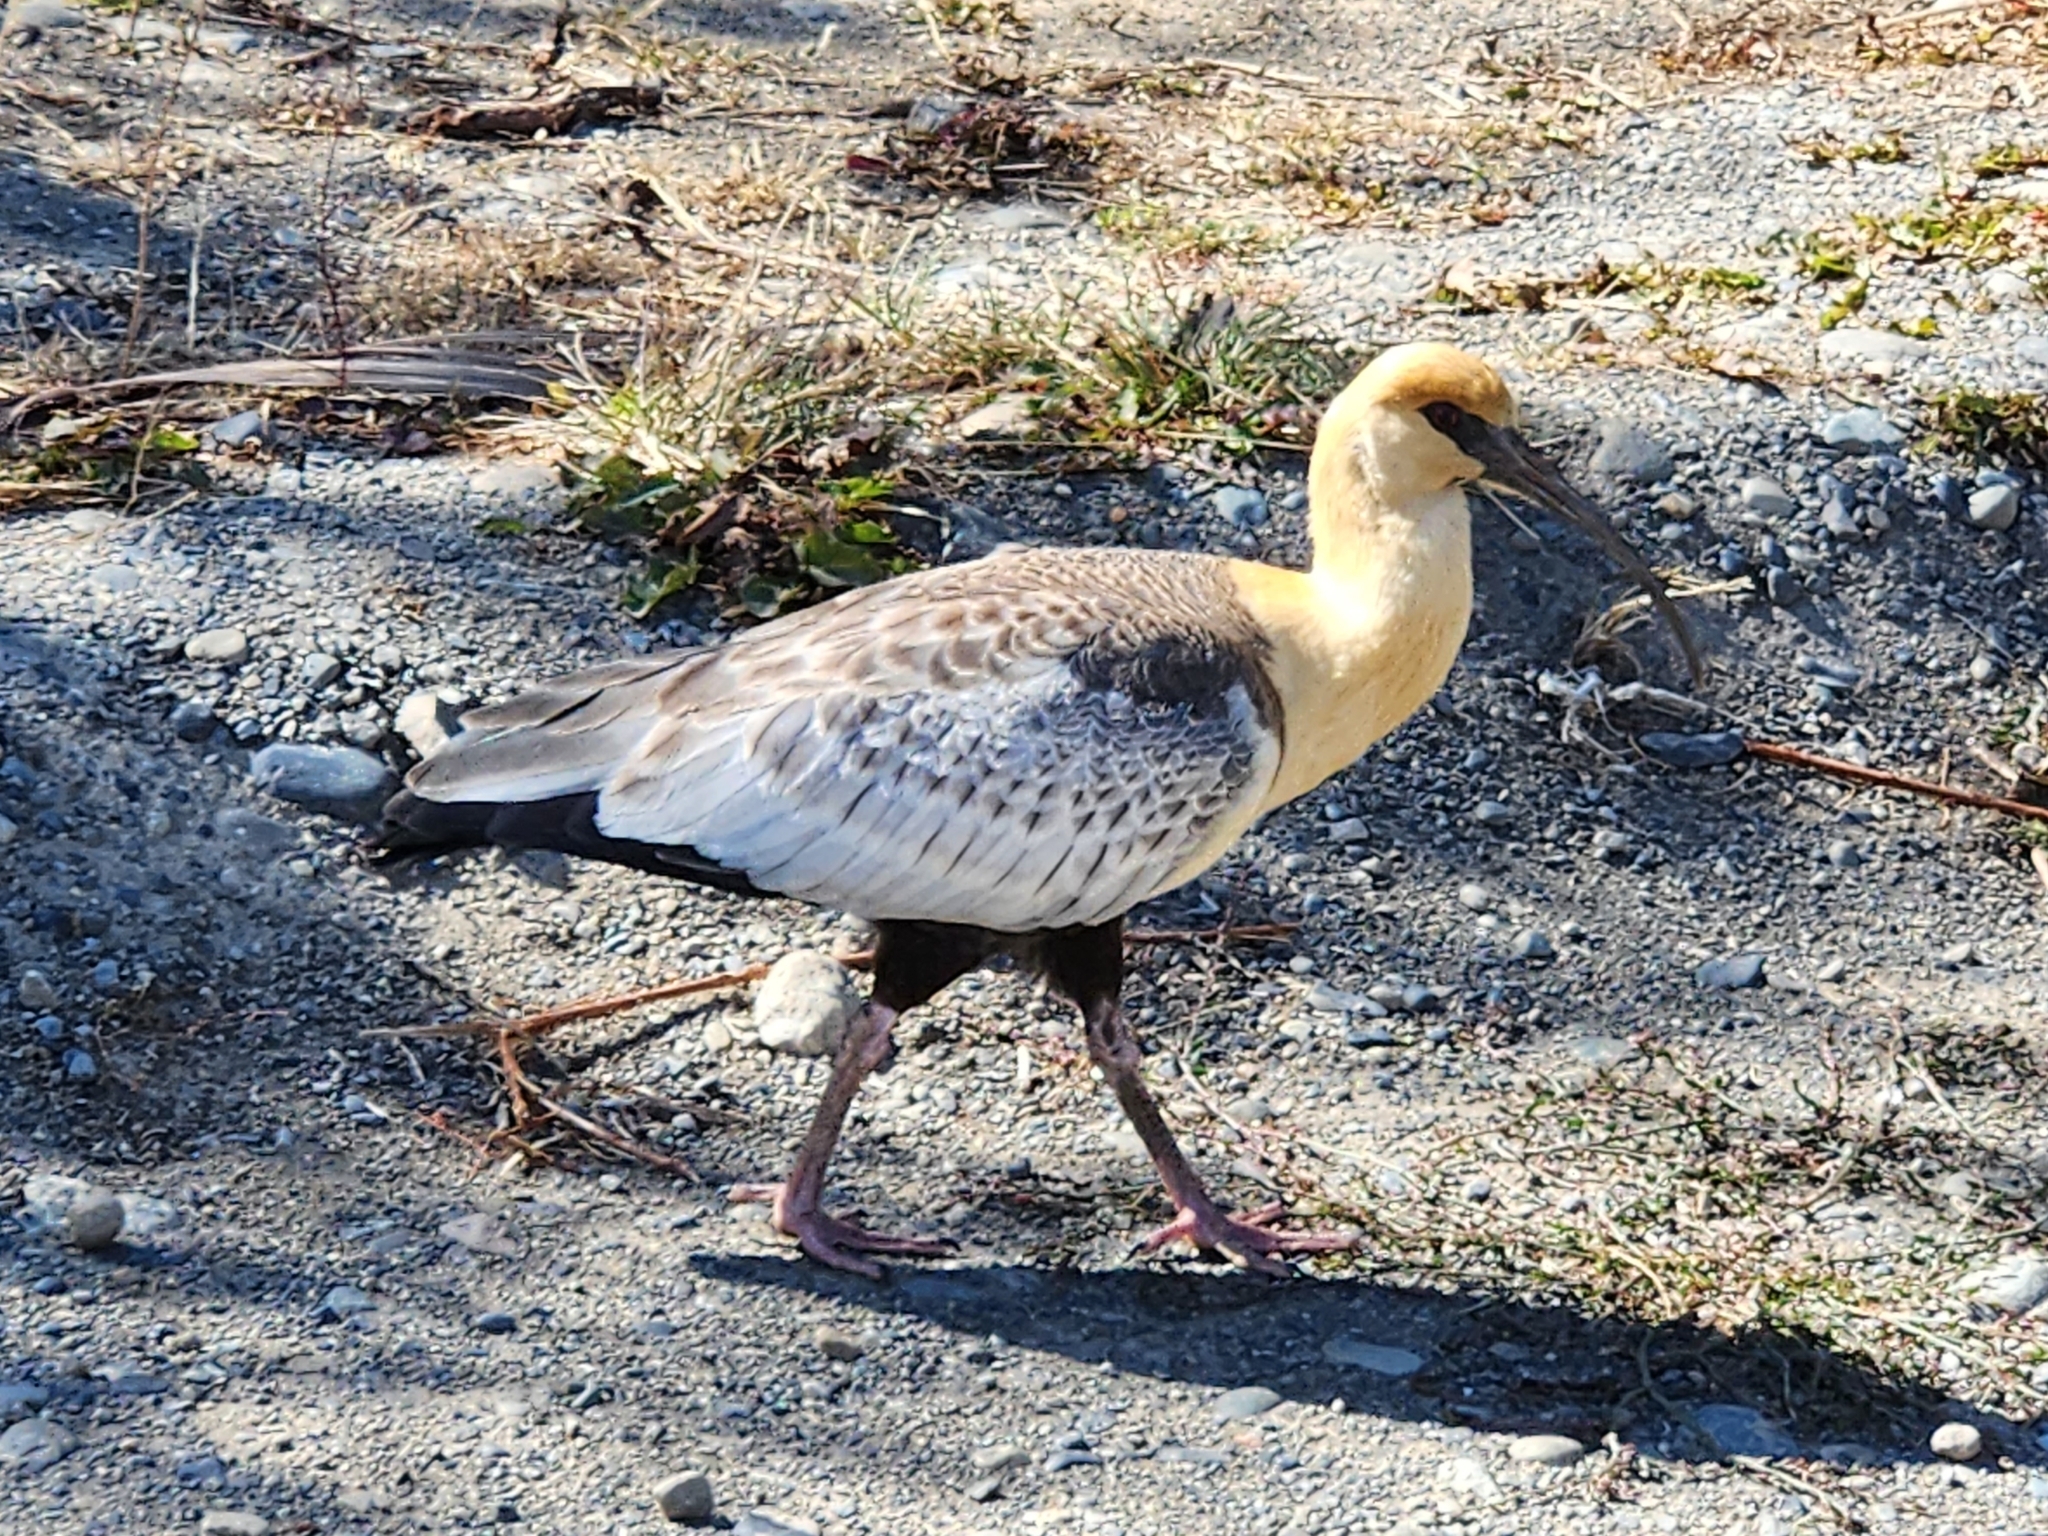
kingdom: Animalia
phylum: Chordata
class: Aves
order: Pelecaniformes
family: Threskiornithidae
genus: Theristicus
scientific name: Theristicus melanopis
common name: Black-faced ibis
